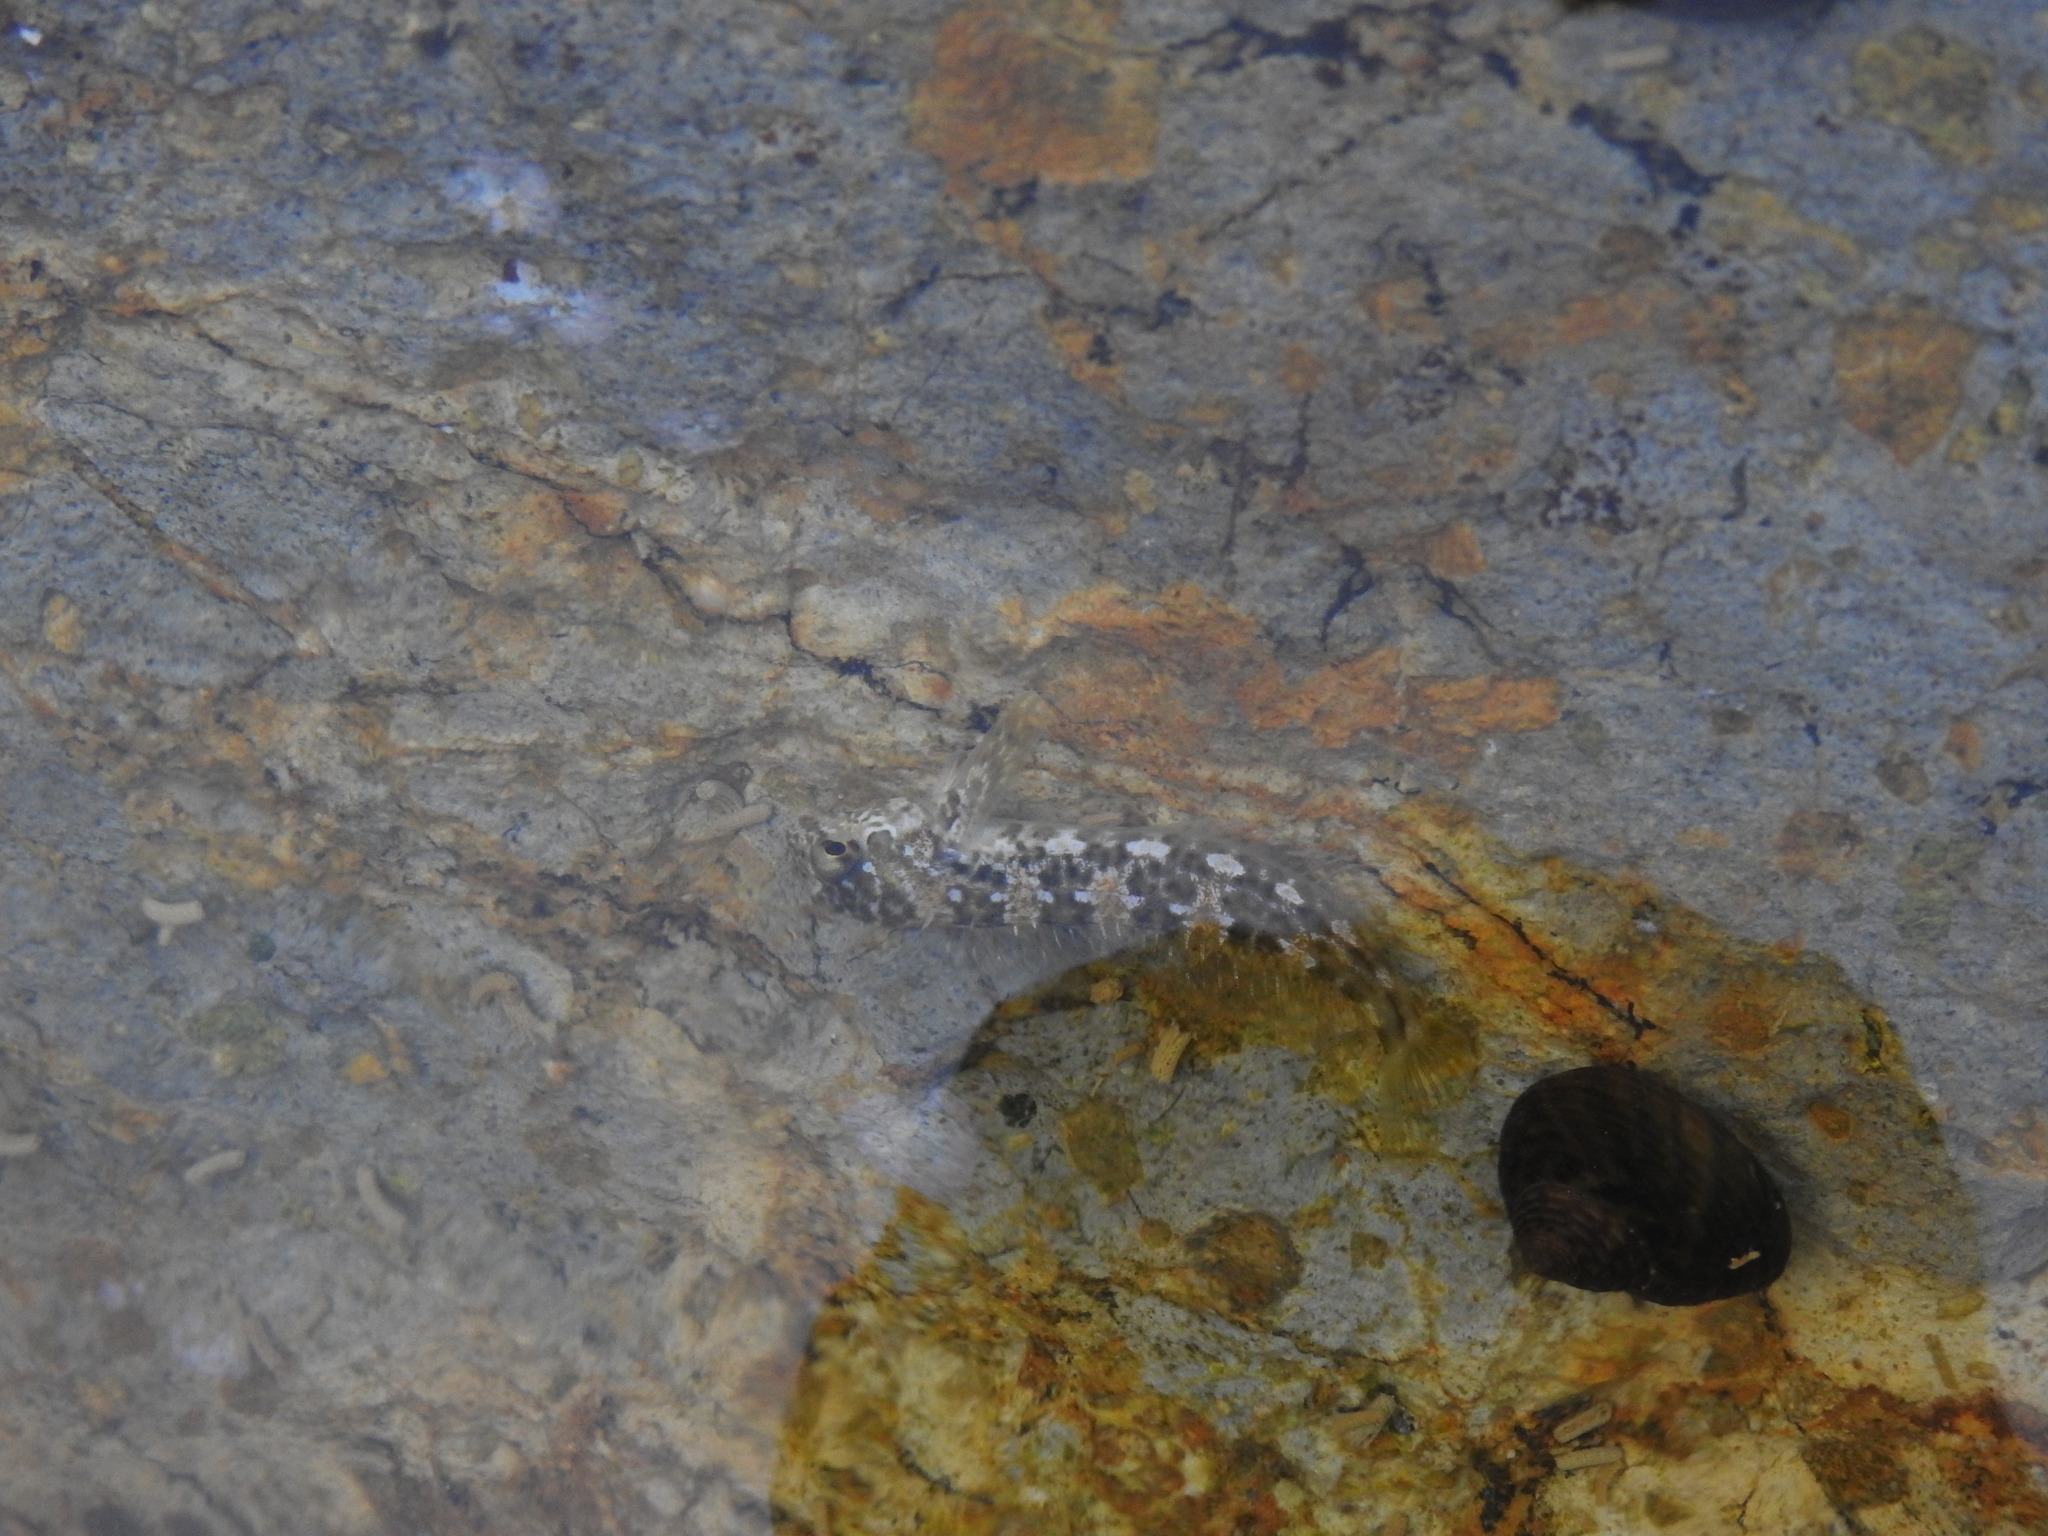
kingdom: Animalia
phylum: Chordata
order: Perciformes
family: Blenniidae
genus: Lipophrys
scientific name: Lipophrys pholis
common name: Shanny
